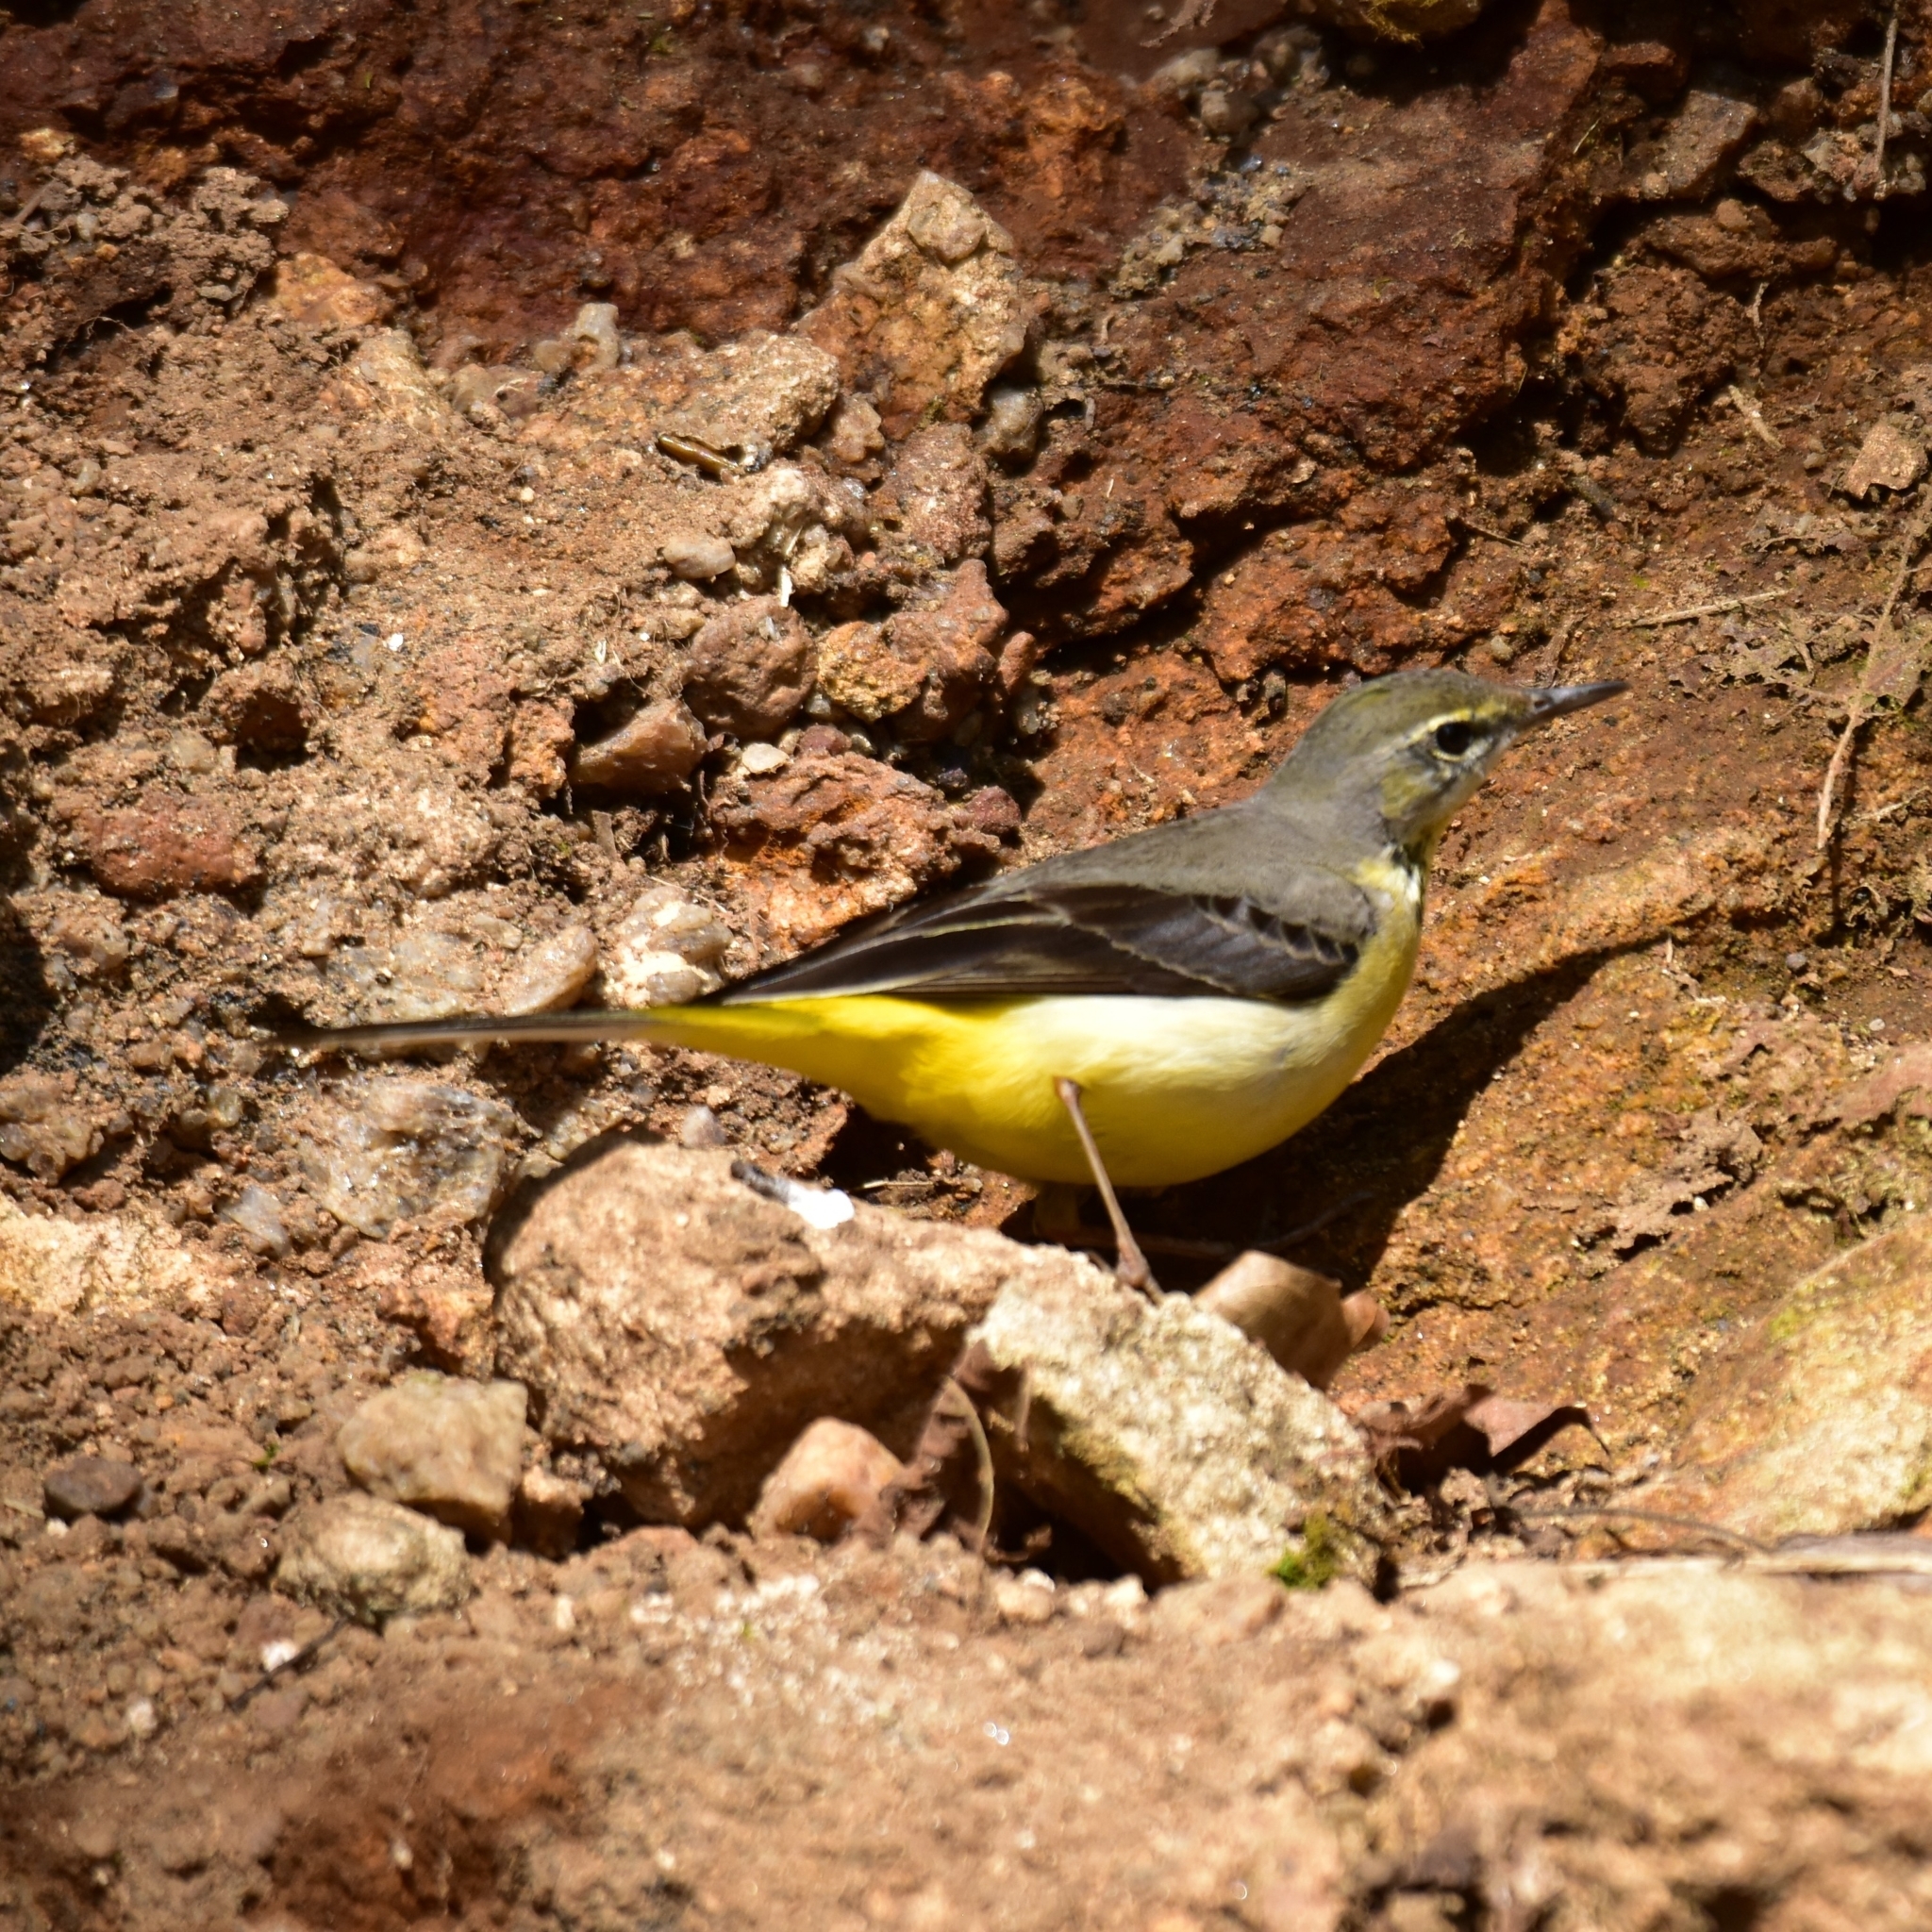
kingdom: Animalia
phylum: Chordata
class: Aves
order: Passeriformes
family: Motacillidae
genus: Motacilla
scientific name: Motacilla cinerea
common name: Grey wagtail
